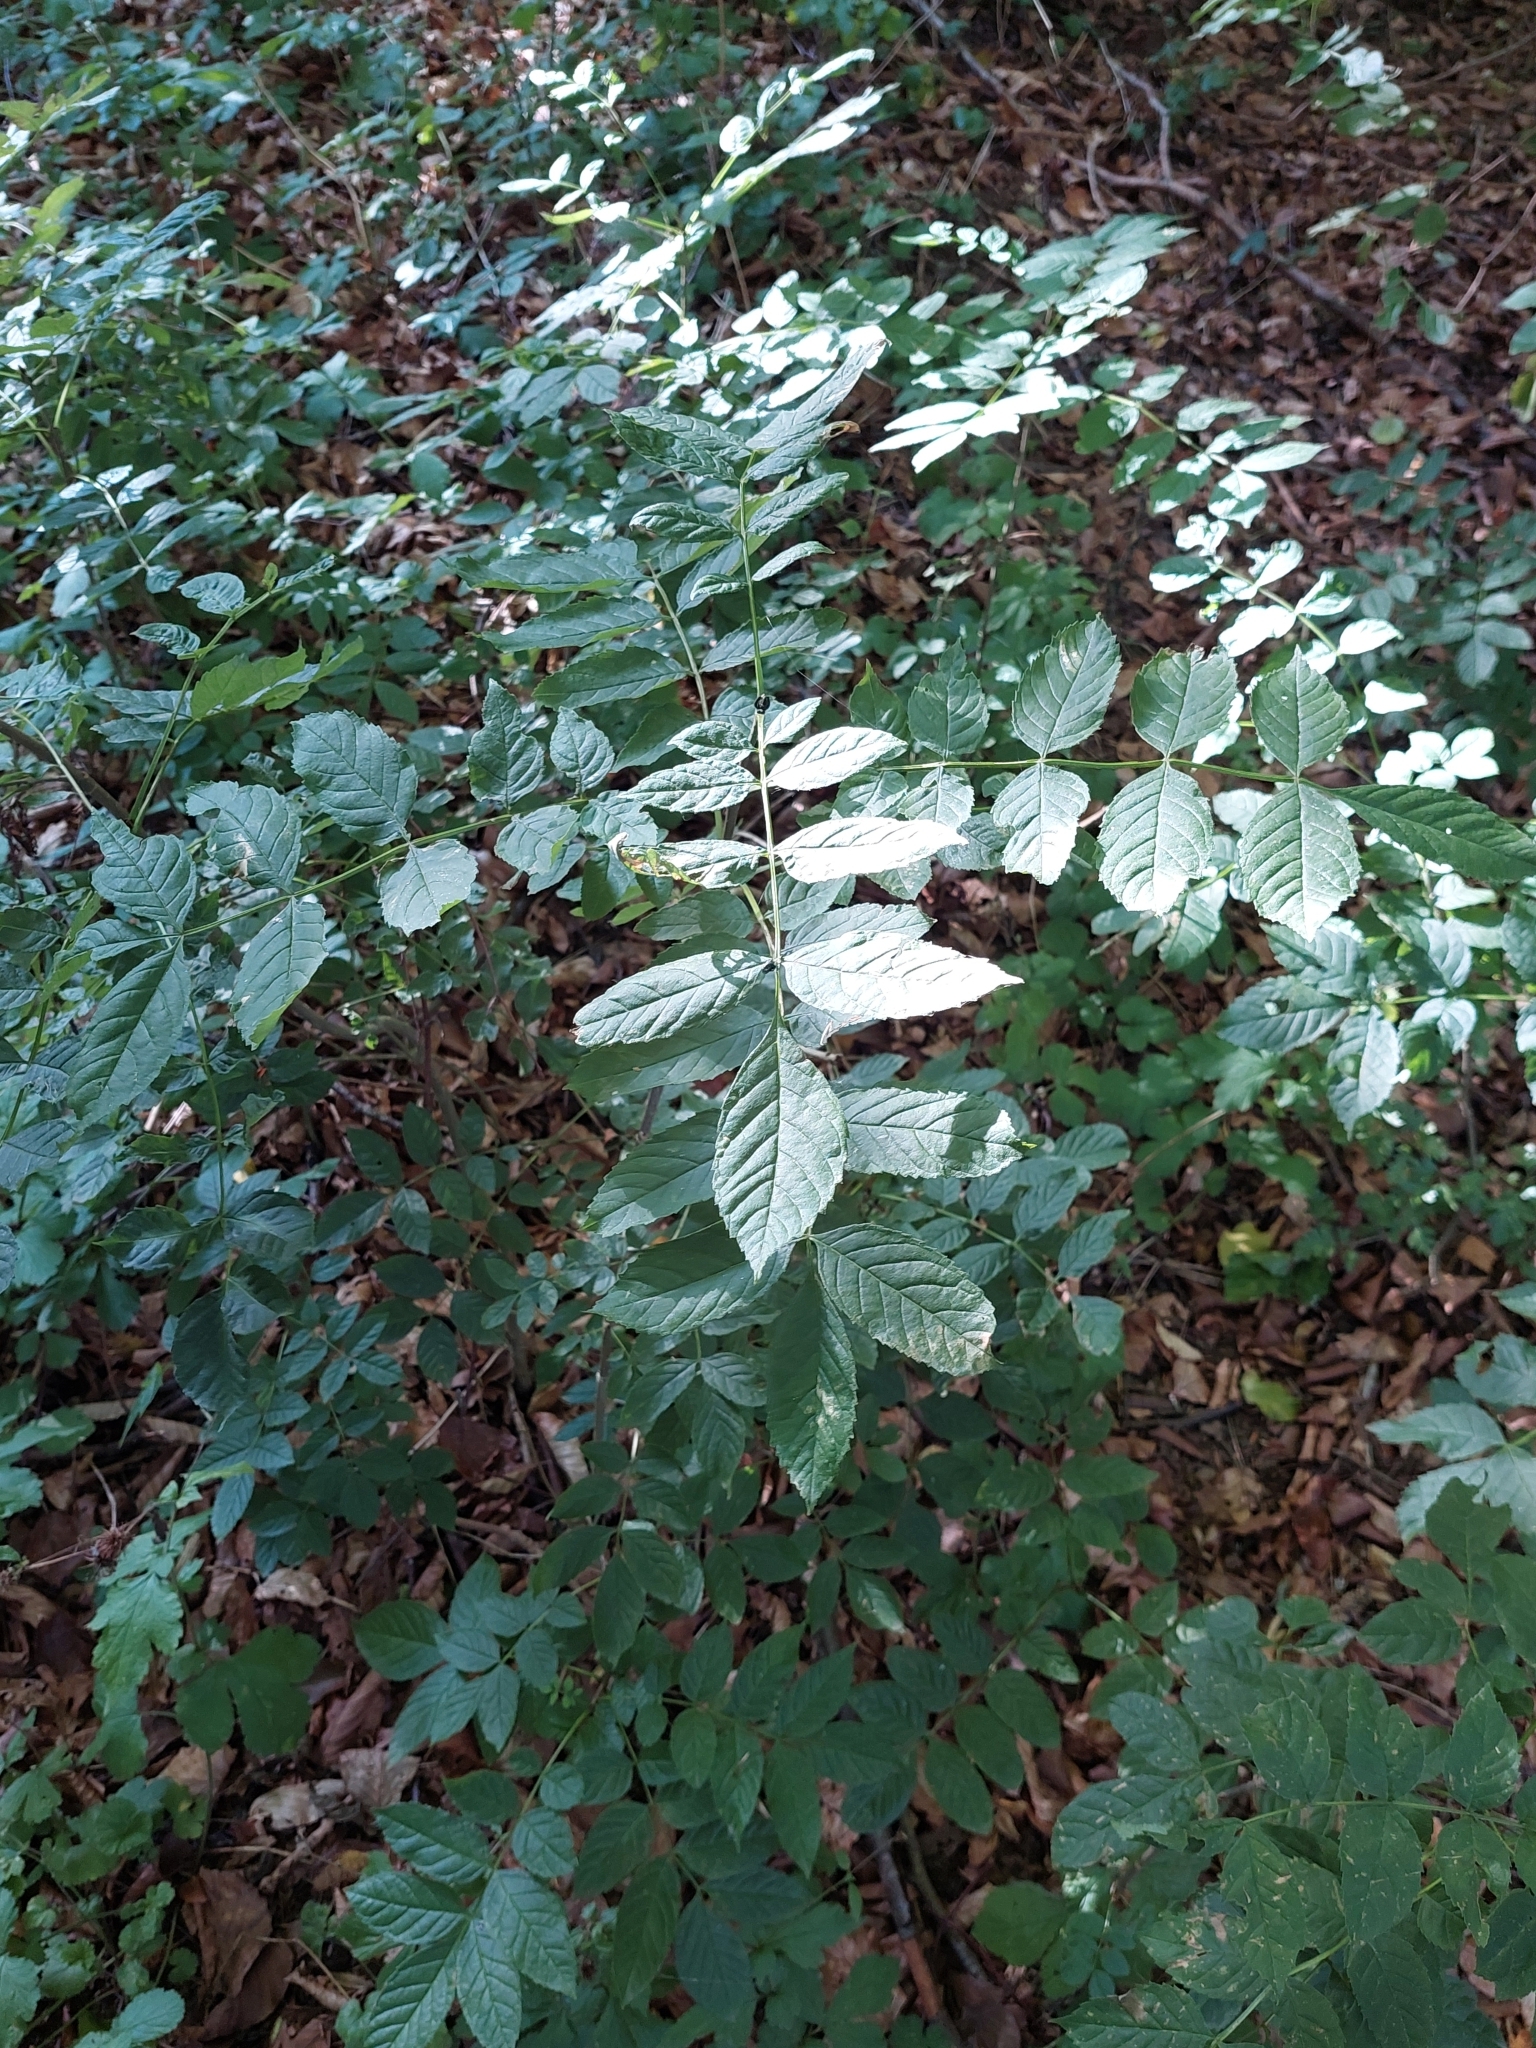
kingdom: Plantae
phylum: Tracheophyta
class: Magnoliopsida
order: Lamiales
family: Oleaceae
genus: Fraxinus
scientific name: Fraxinus excelsior
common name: European ash
